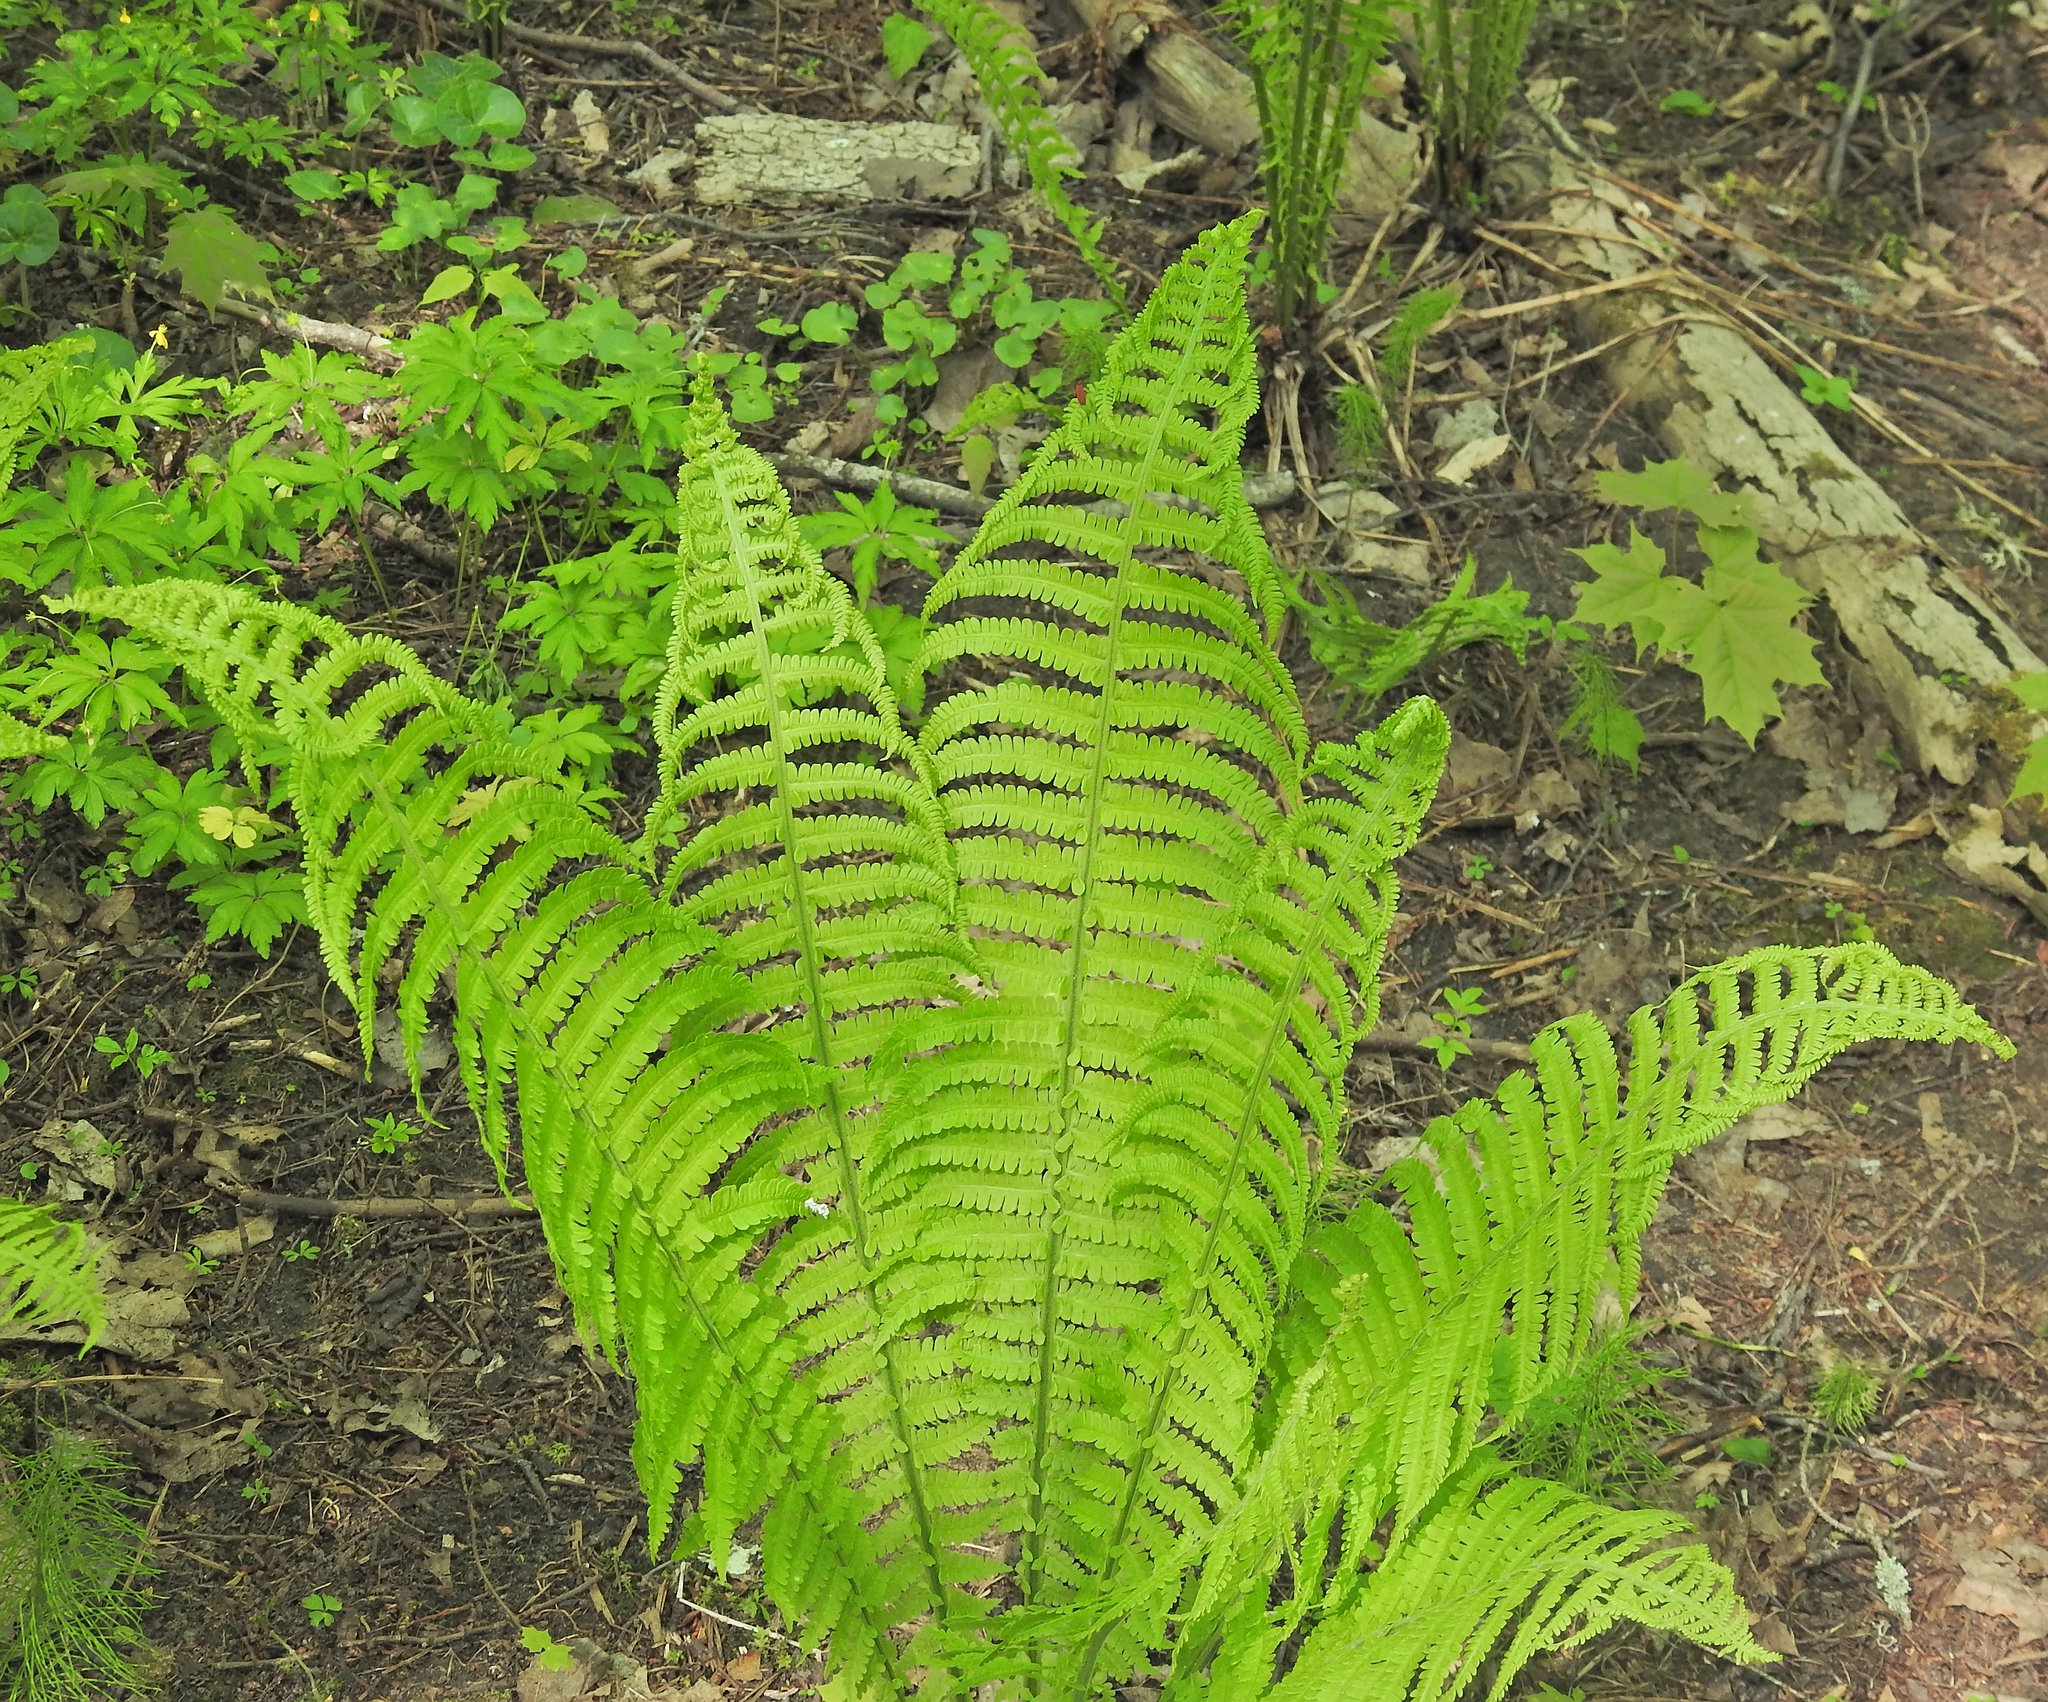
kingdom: Plantae
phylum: Tracheophyta
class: Polypodiopsida
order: Polypodiales
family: Onocleaceae
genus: Matteuccia
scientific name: Matteuccia struthiopteris
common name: Ostrich fern
